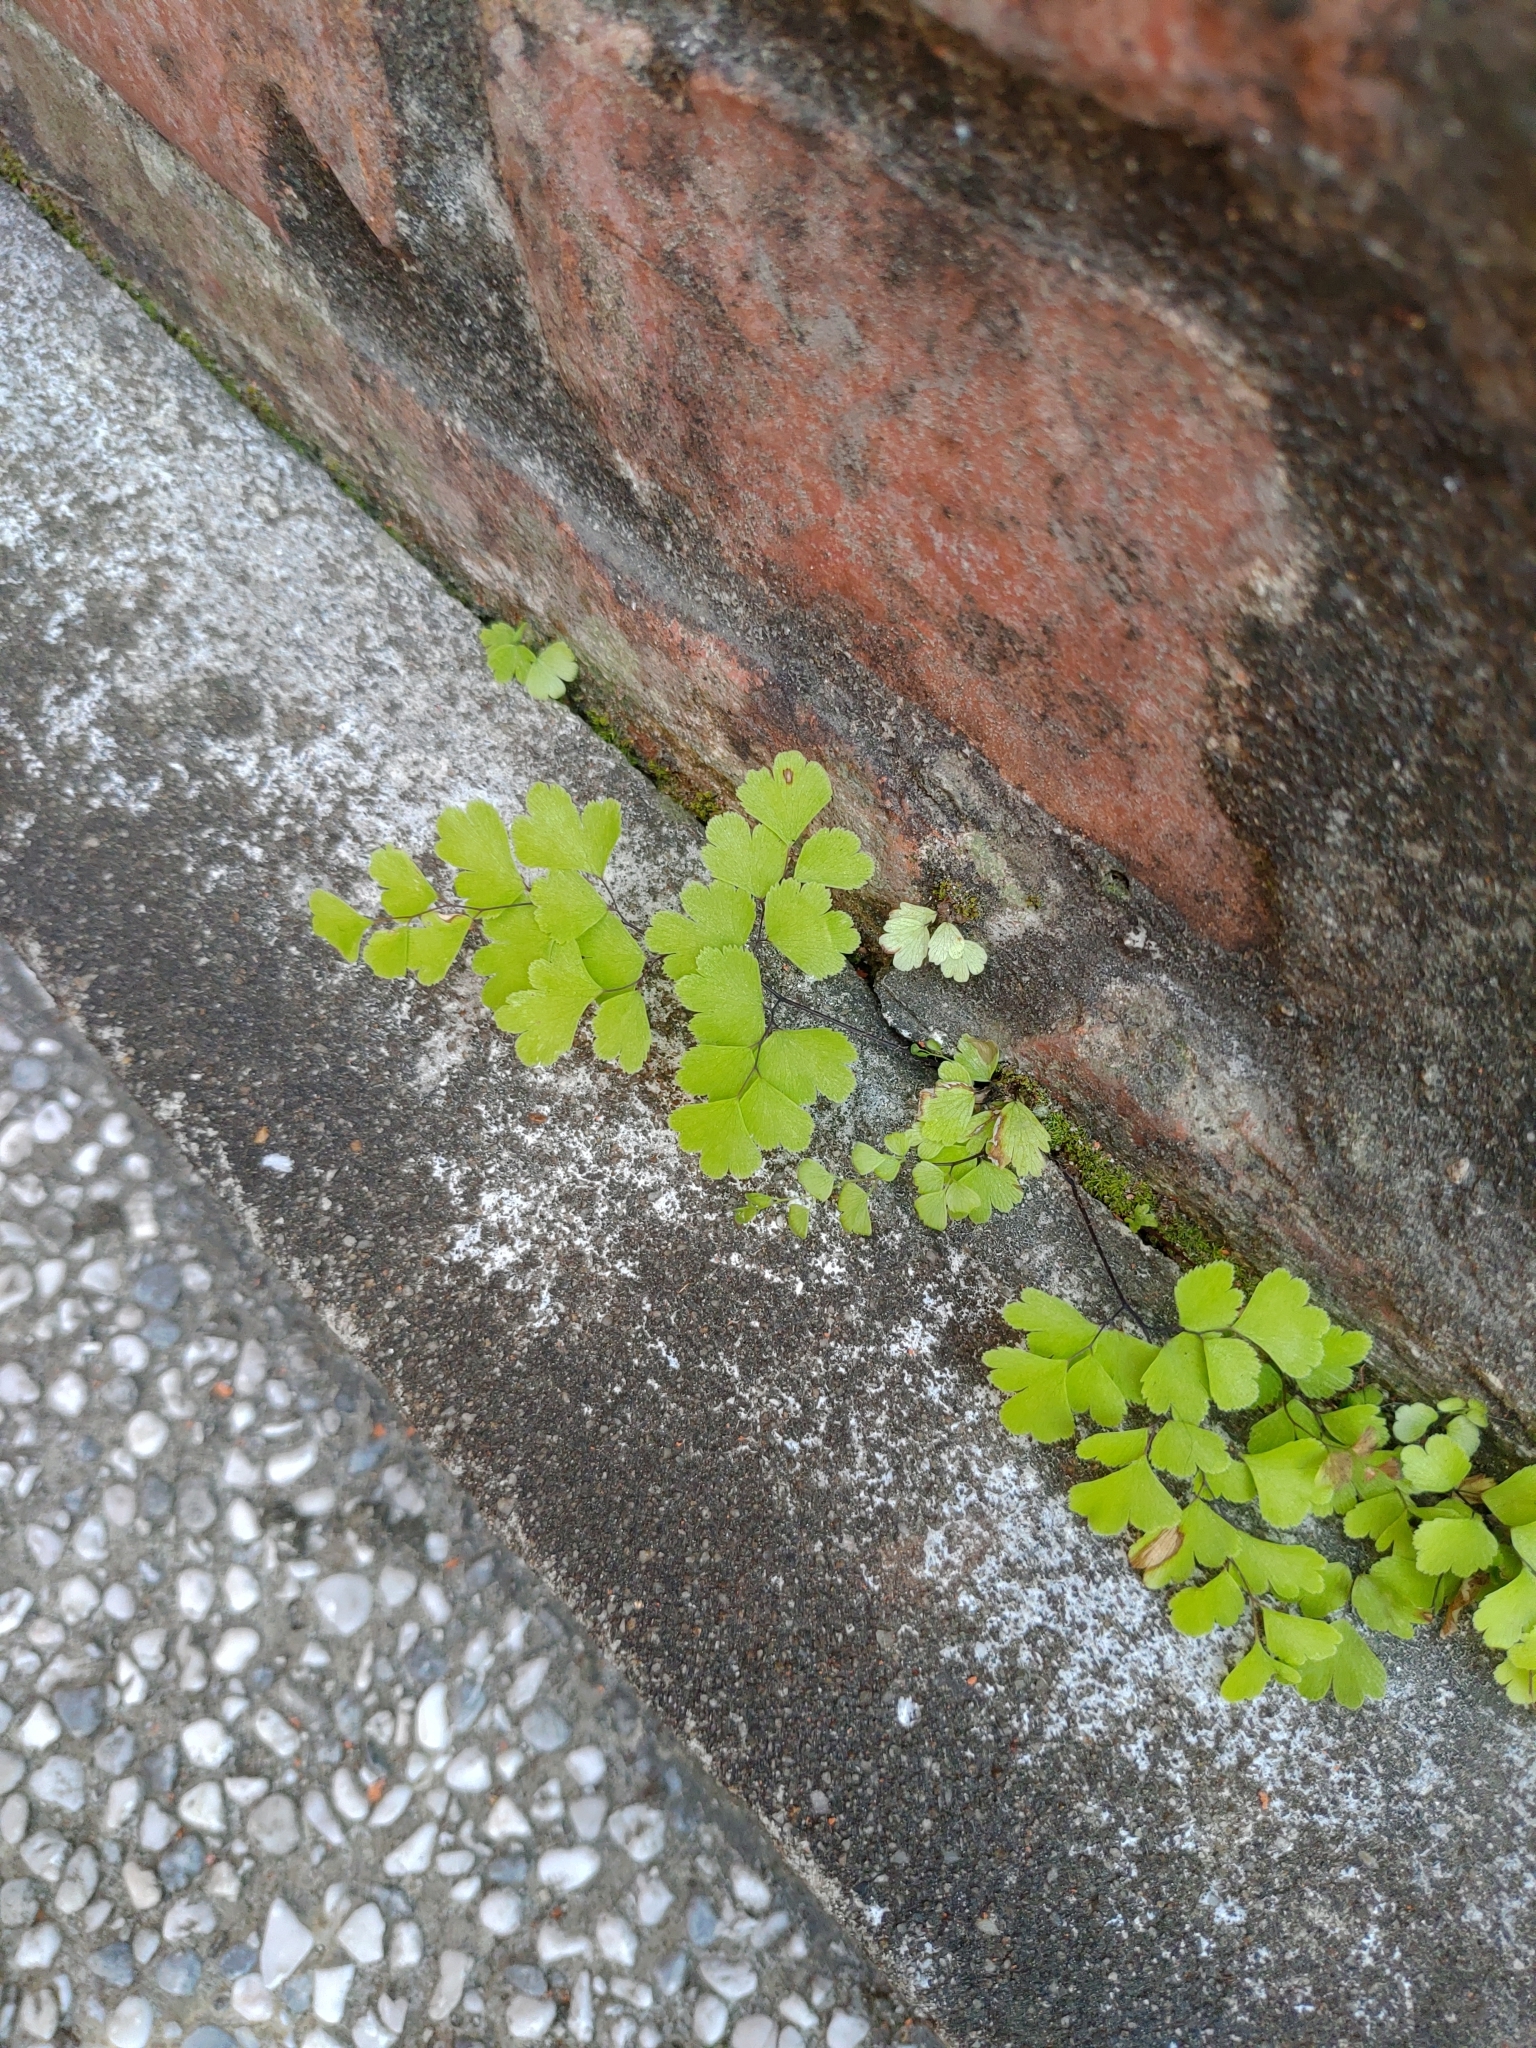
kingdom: Plantae
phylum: Tracheophyta
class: Polypodiopsida
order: Polypodiales
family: Pteridaceae
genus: Adiantum
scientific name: Adiantum capillus-veneris
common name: Maidenhair fern
